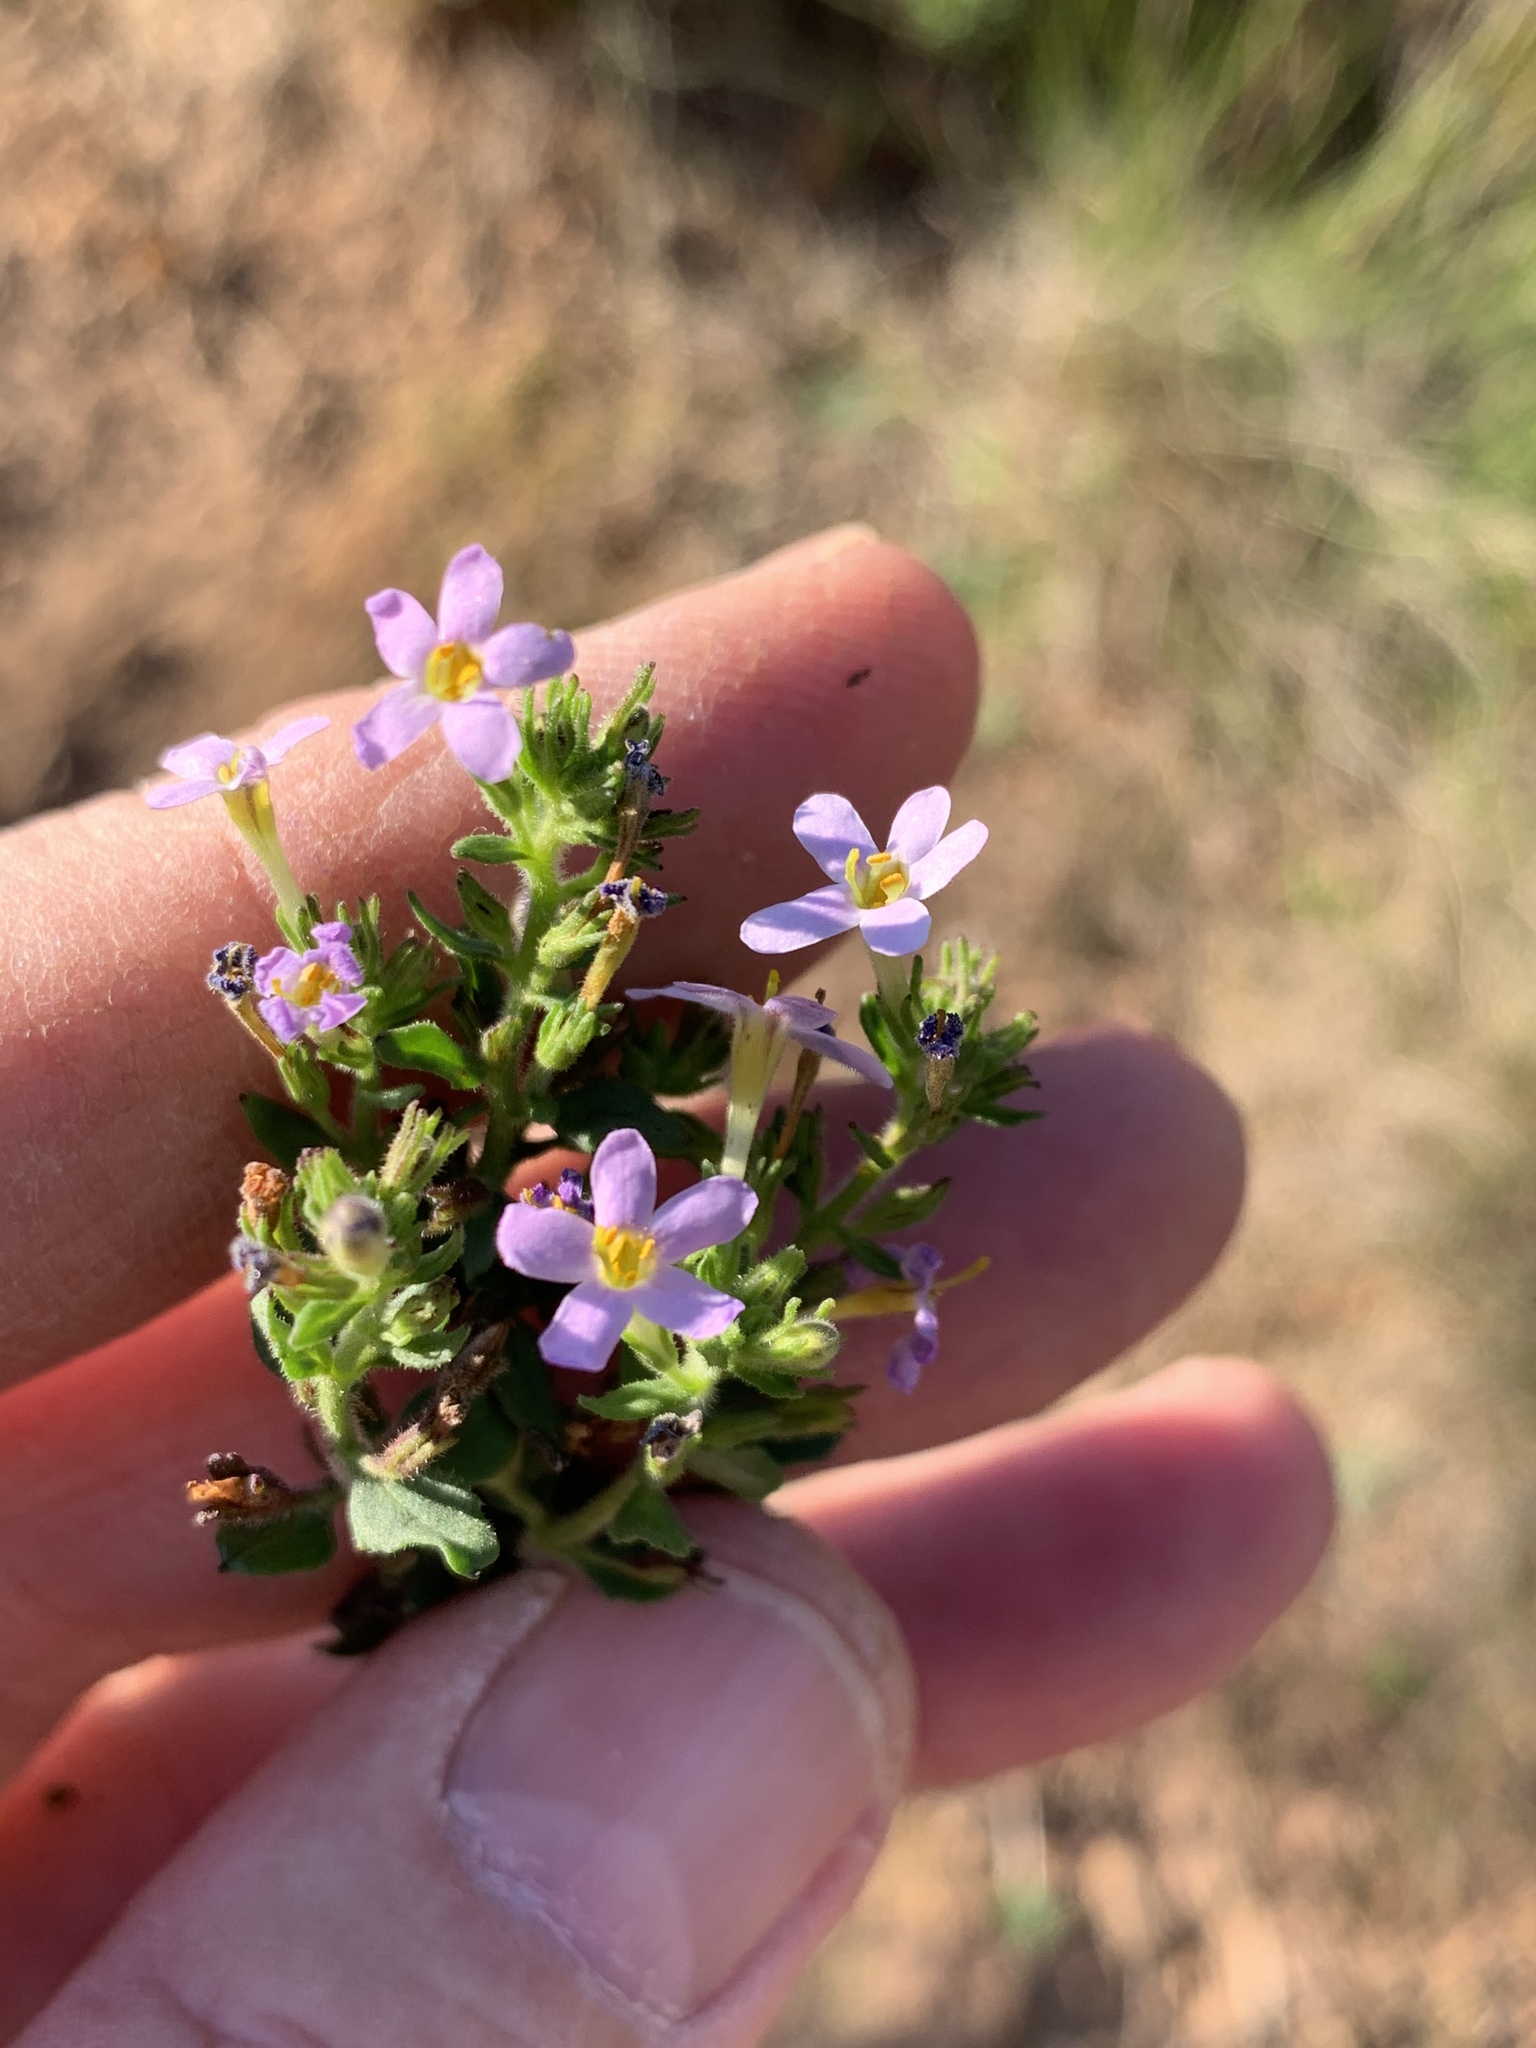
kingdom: Plantae
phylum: Tracheophyta
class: Magnoliopsida
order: Lamiales
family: Scrophulariaceae
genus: Chaenostoma
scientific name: Chaenostoma hispidum
